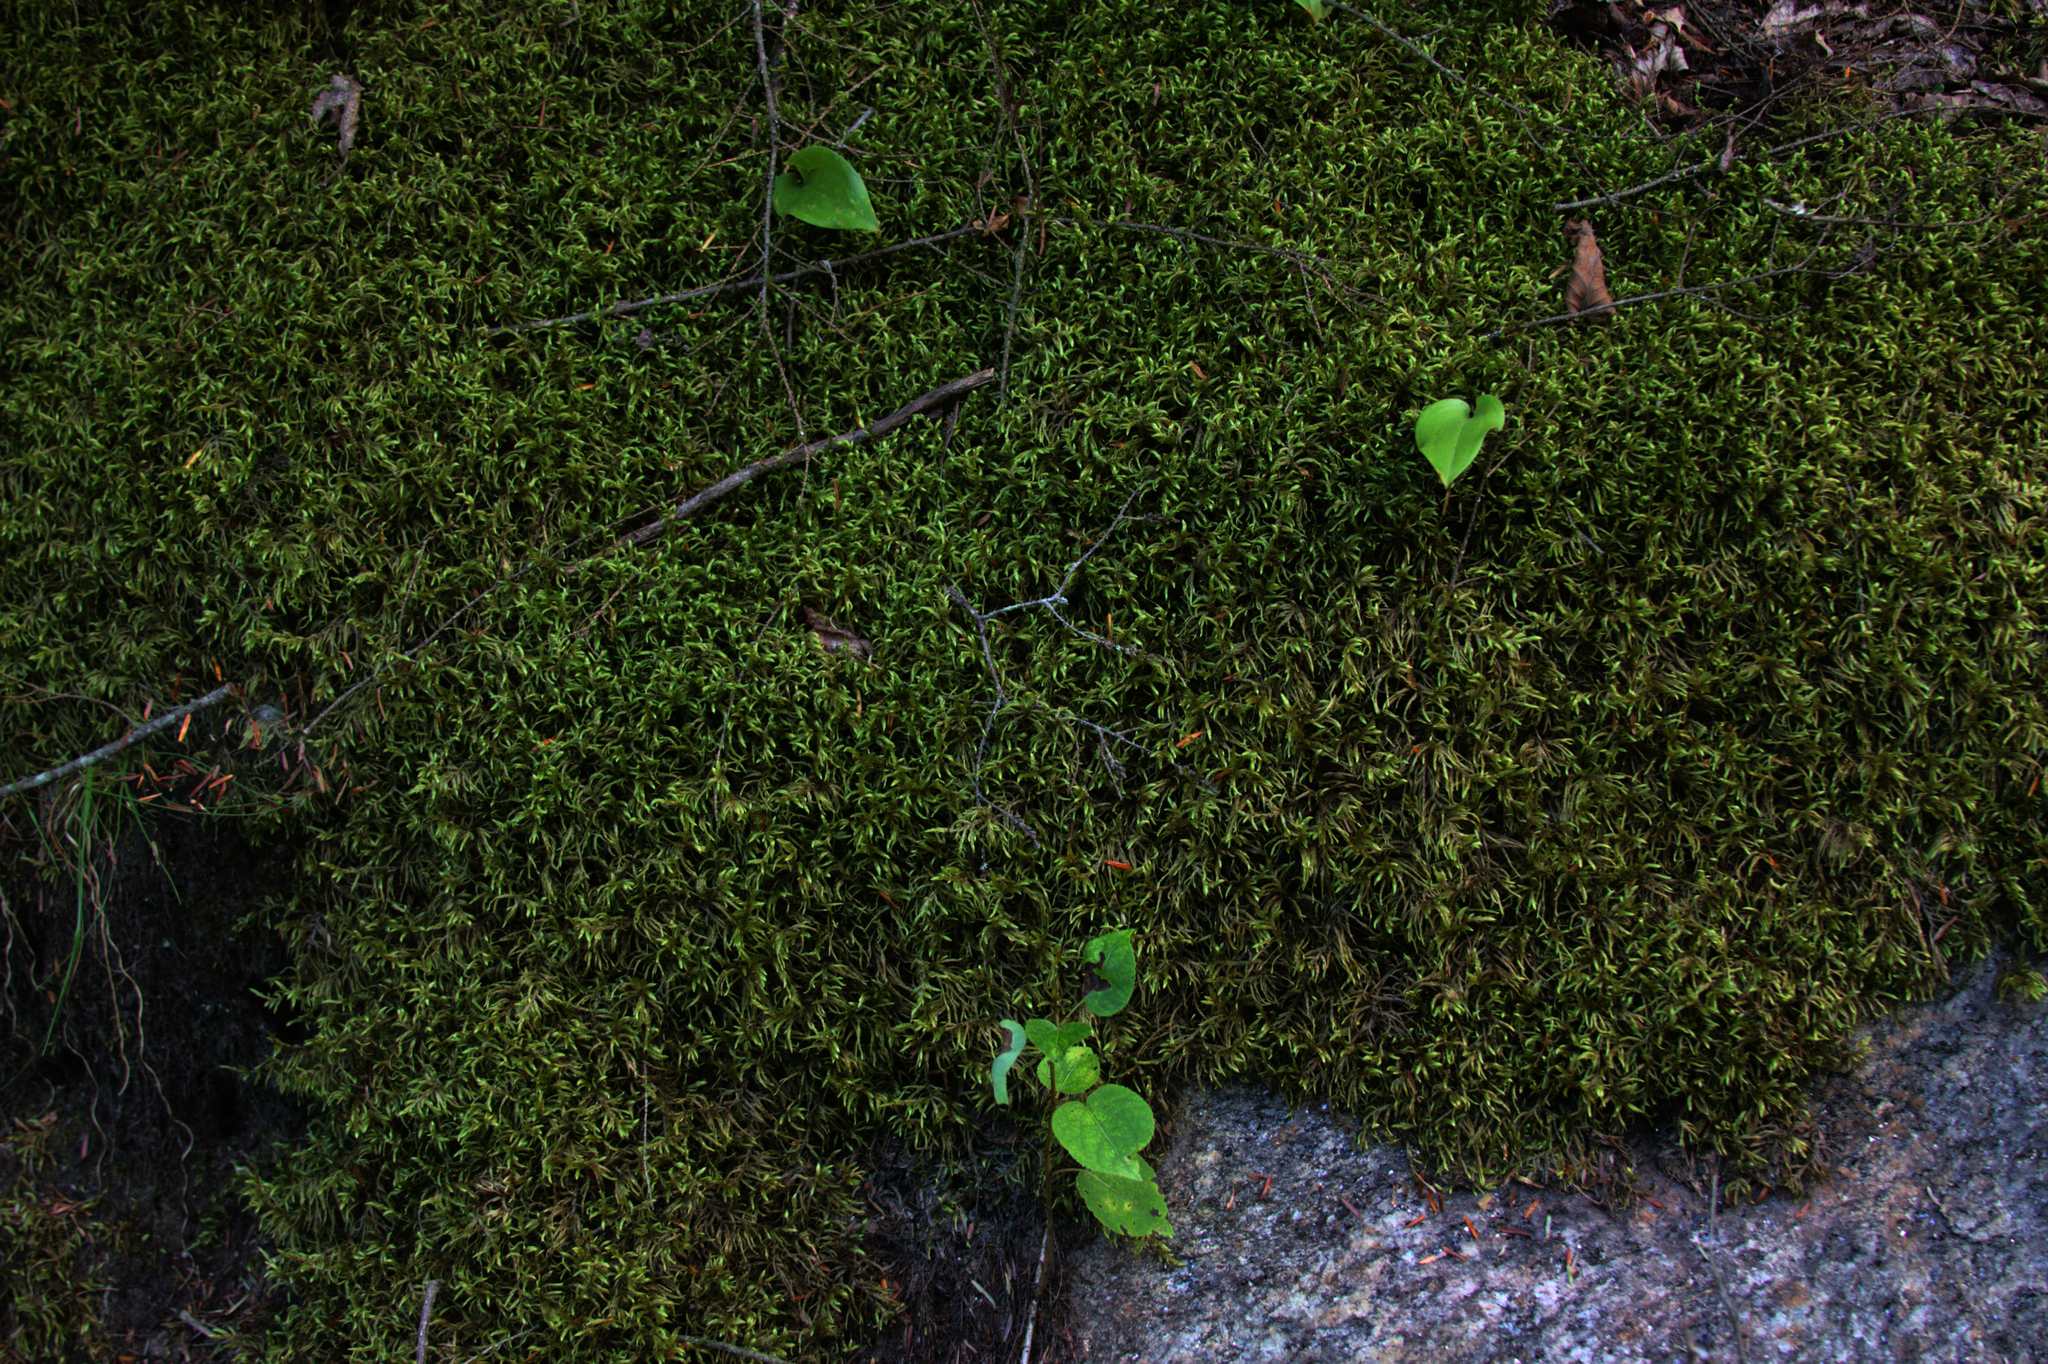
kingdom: Plantae
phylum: Tracheophyta
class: Liliopsida
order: Asparagales
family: Asparagaceae
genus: Maianthemum
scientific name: Maianthemum canadense
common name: False lily-of-the-valley
